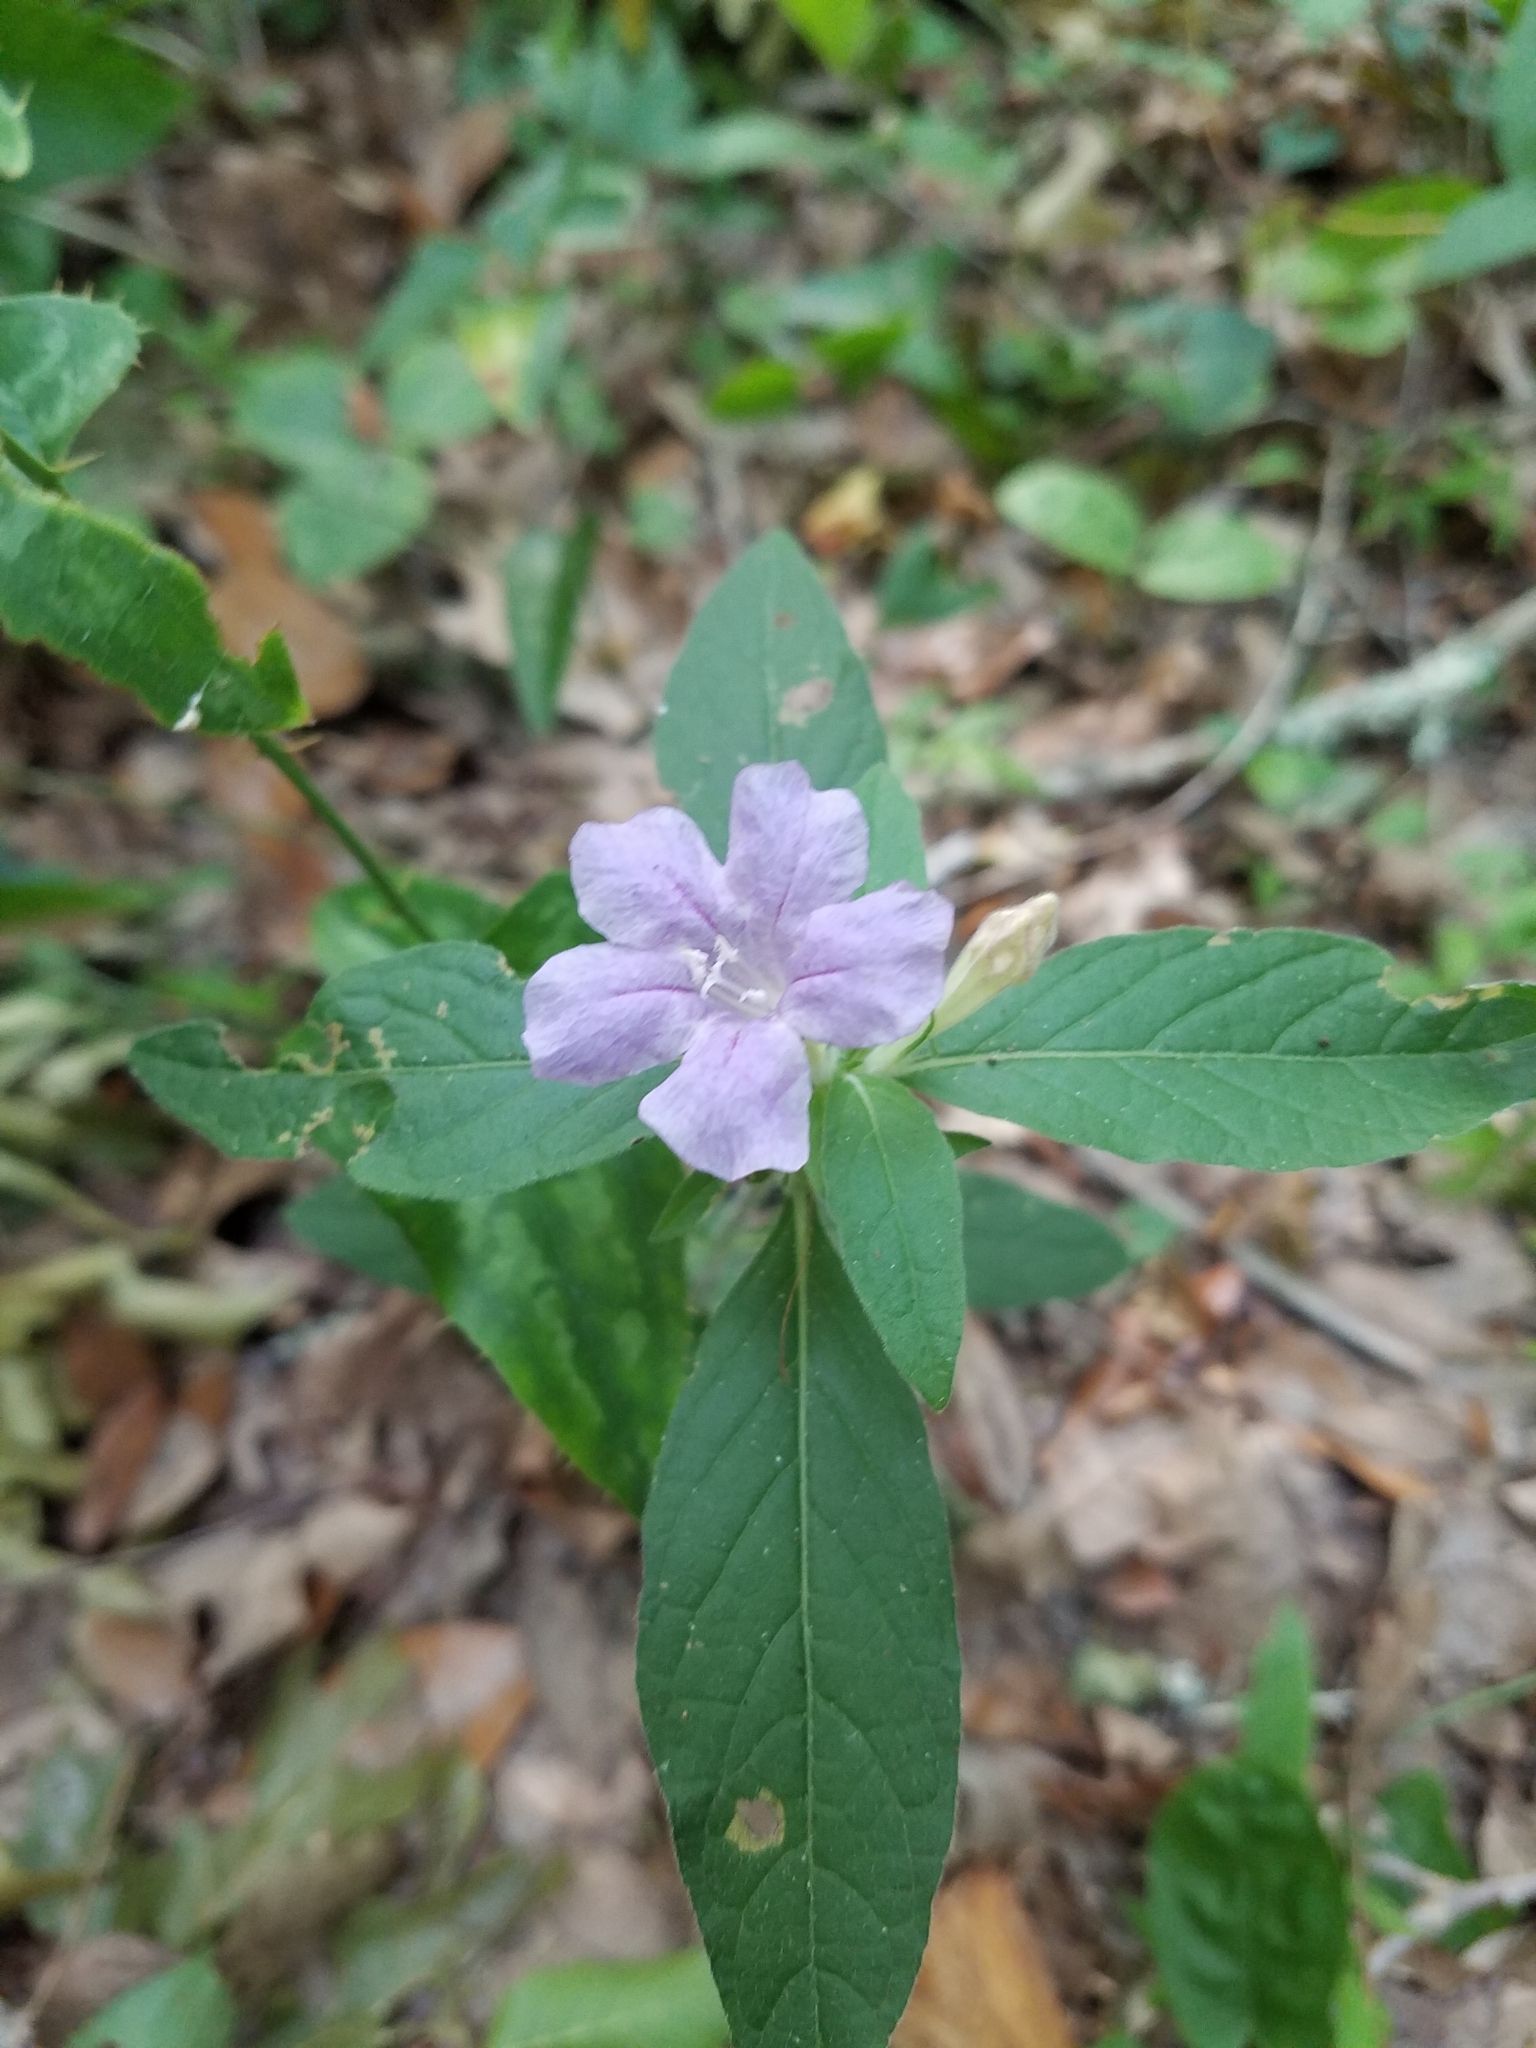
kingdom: Plantae
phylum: Tracheophyta
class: Magnoliopsida
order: Lamiales
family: Acanthaceae
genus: Ruellia
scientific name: Ruellia caroliniensis
